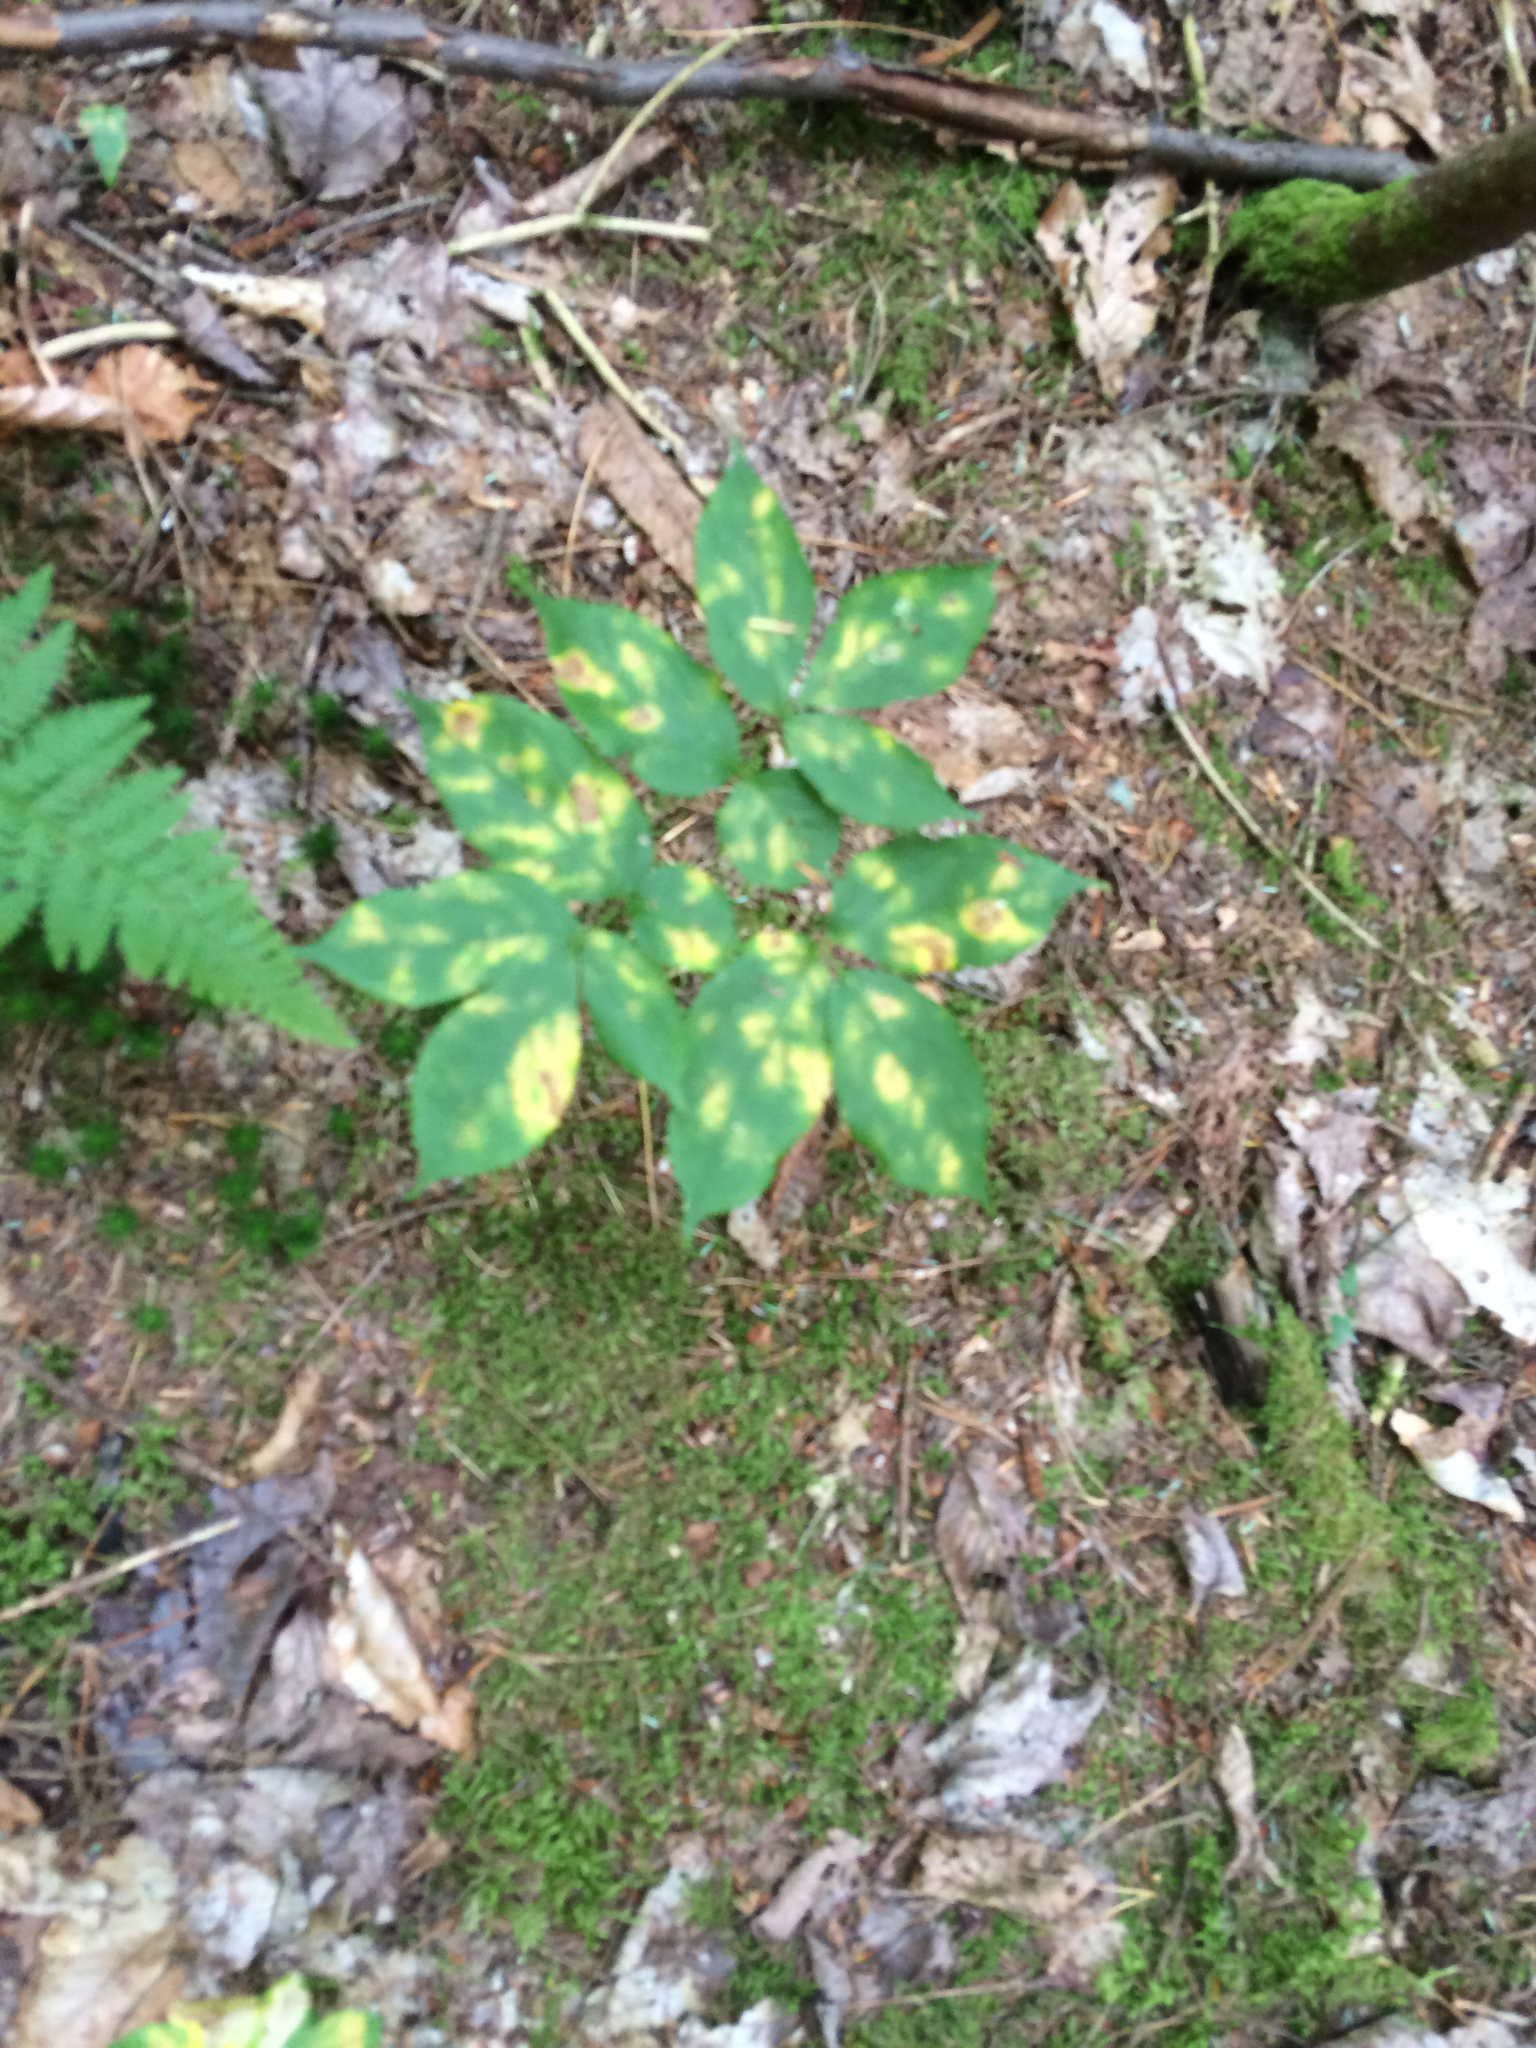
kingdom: Plantae
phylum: Tracheophyta
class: Magnoliopsida
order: Apiales
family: Araliaceae
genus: Aralia
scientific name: Aralia nudicaulis
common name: Wild sarsaparilla
